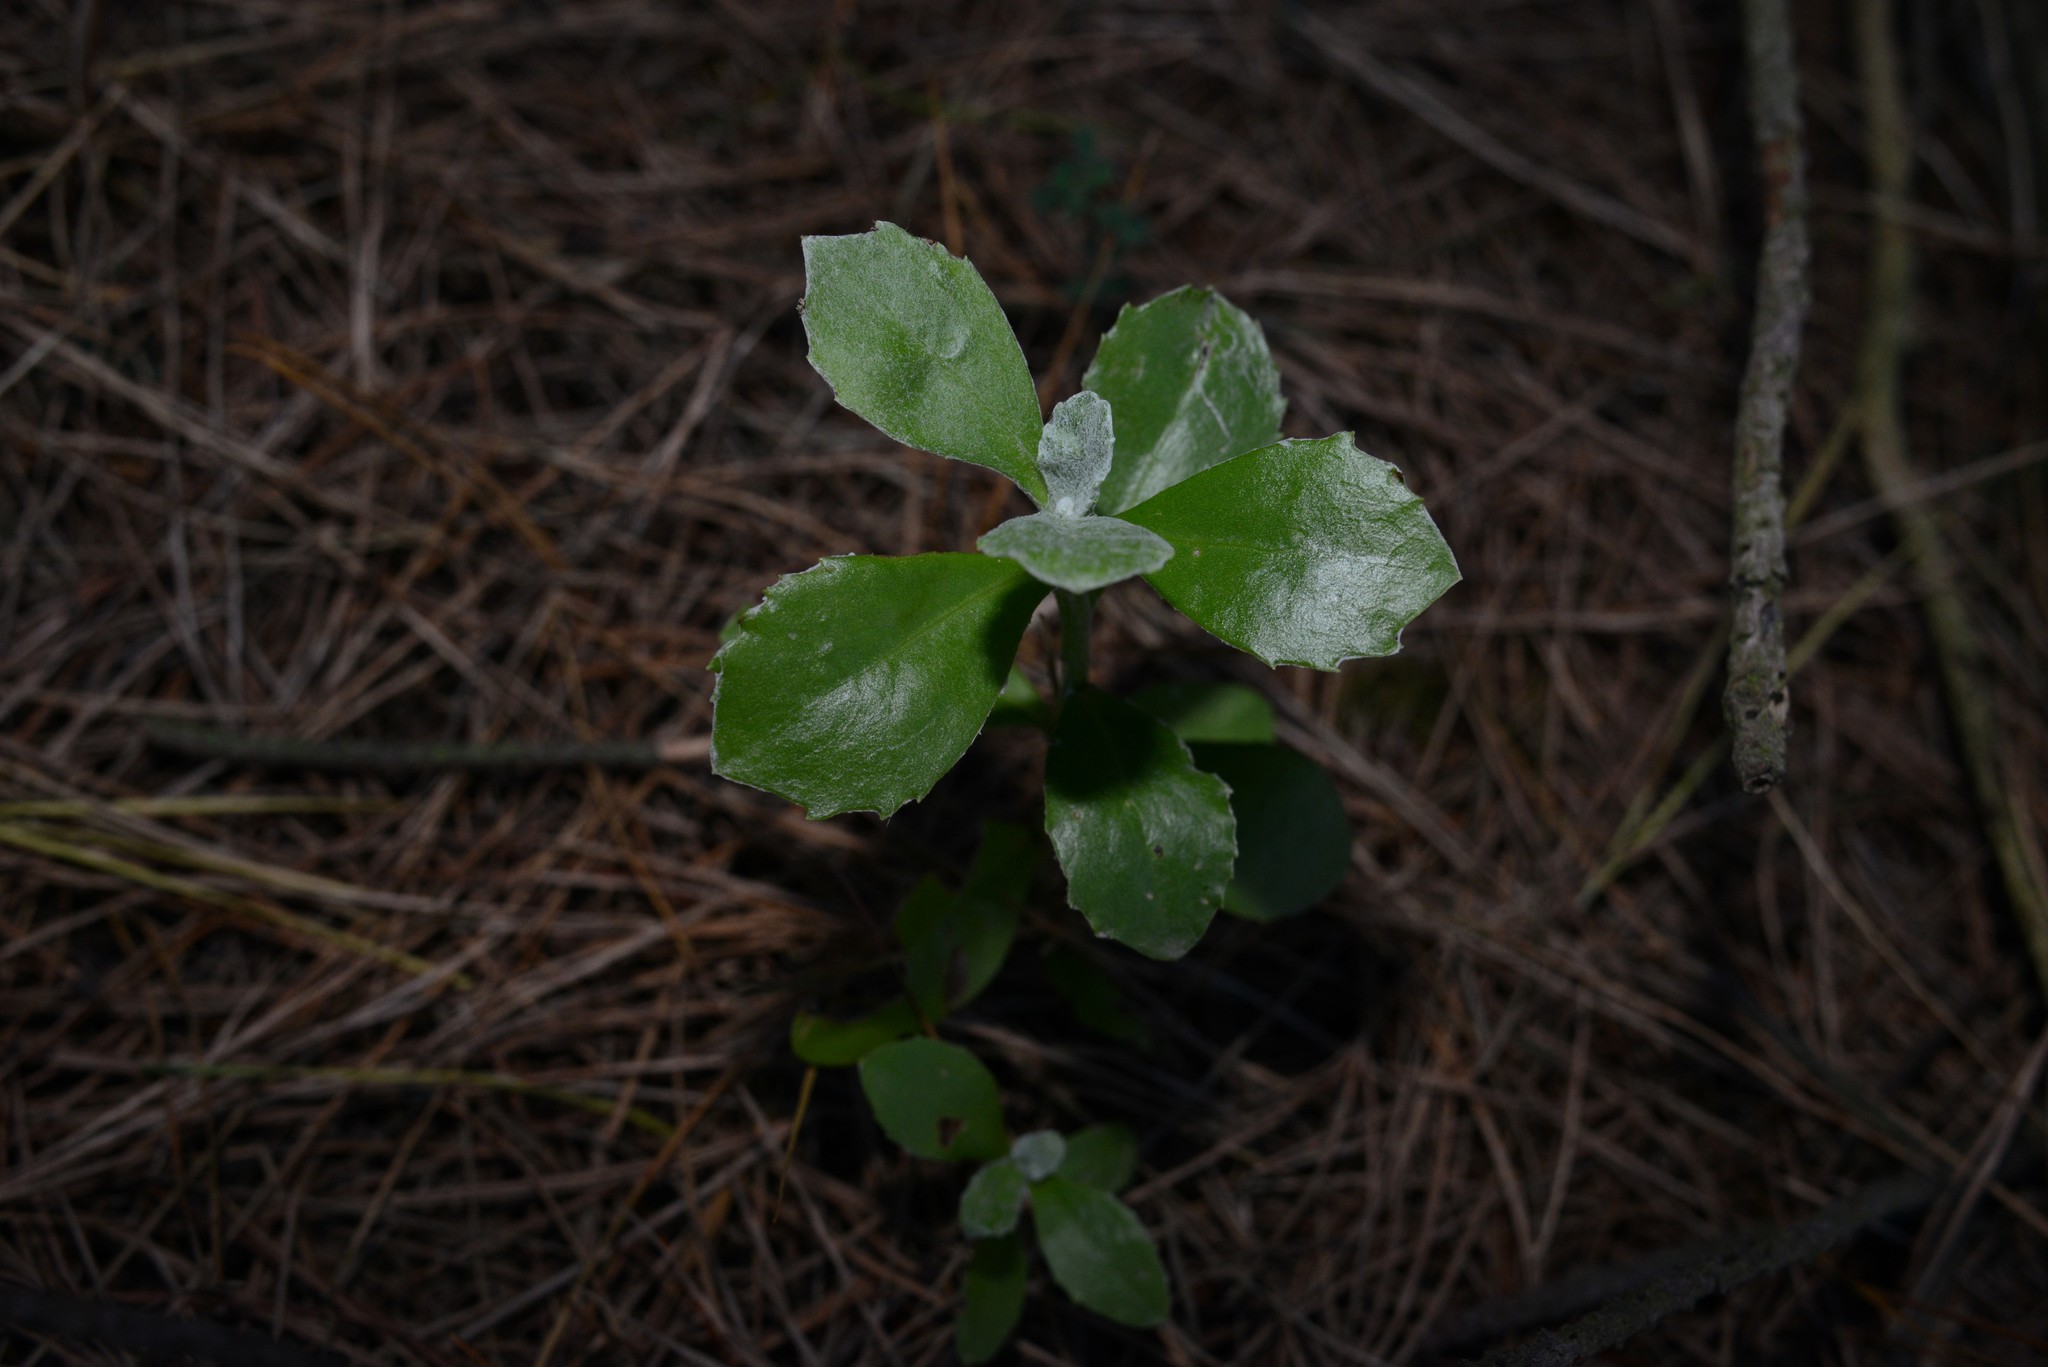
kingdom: Plantae
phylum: Tracheophyta
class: Magnoliopsida
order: Asterales
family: Asteraceae
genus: Osteospermum
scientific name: Osteospermum moniliferum
